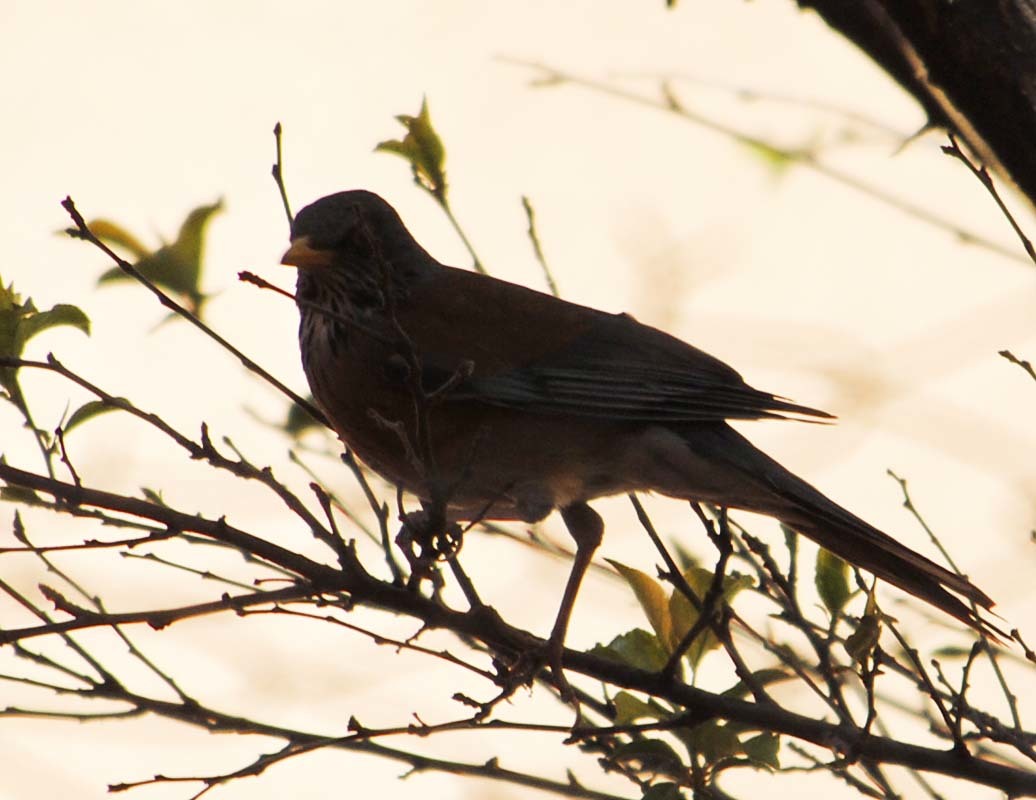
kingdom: Animalia
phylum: Chordata
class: Aves
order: Passeriformes
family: Turdidae
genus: Turdus
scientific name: Turdus rufopalliatus
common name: Rufous-backed robin
